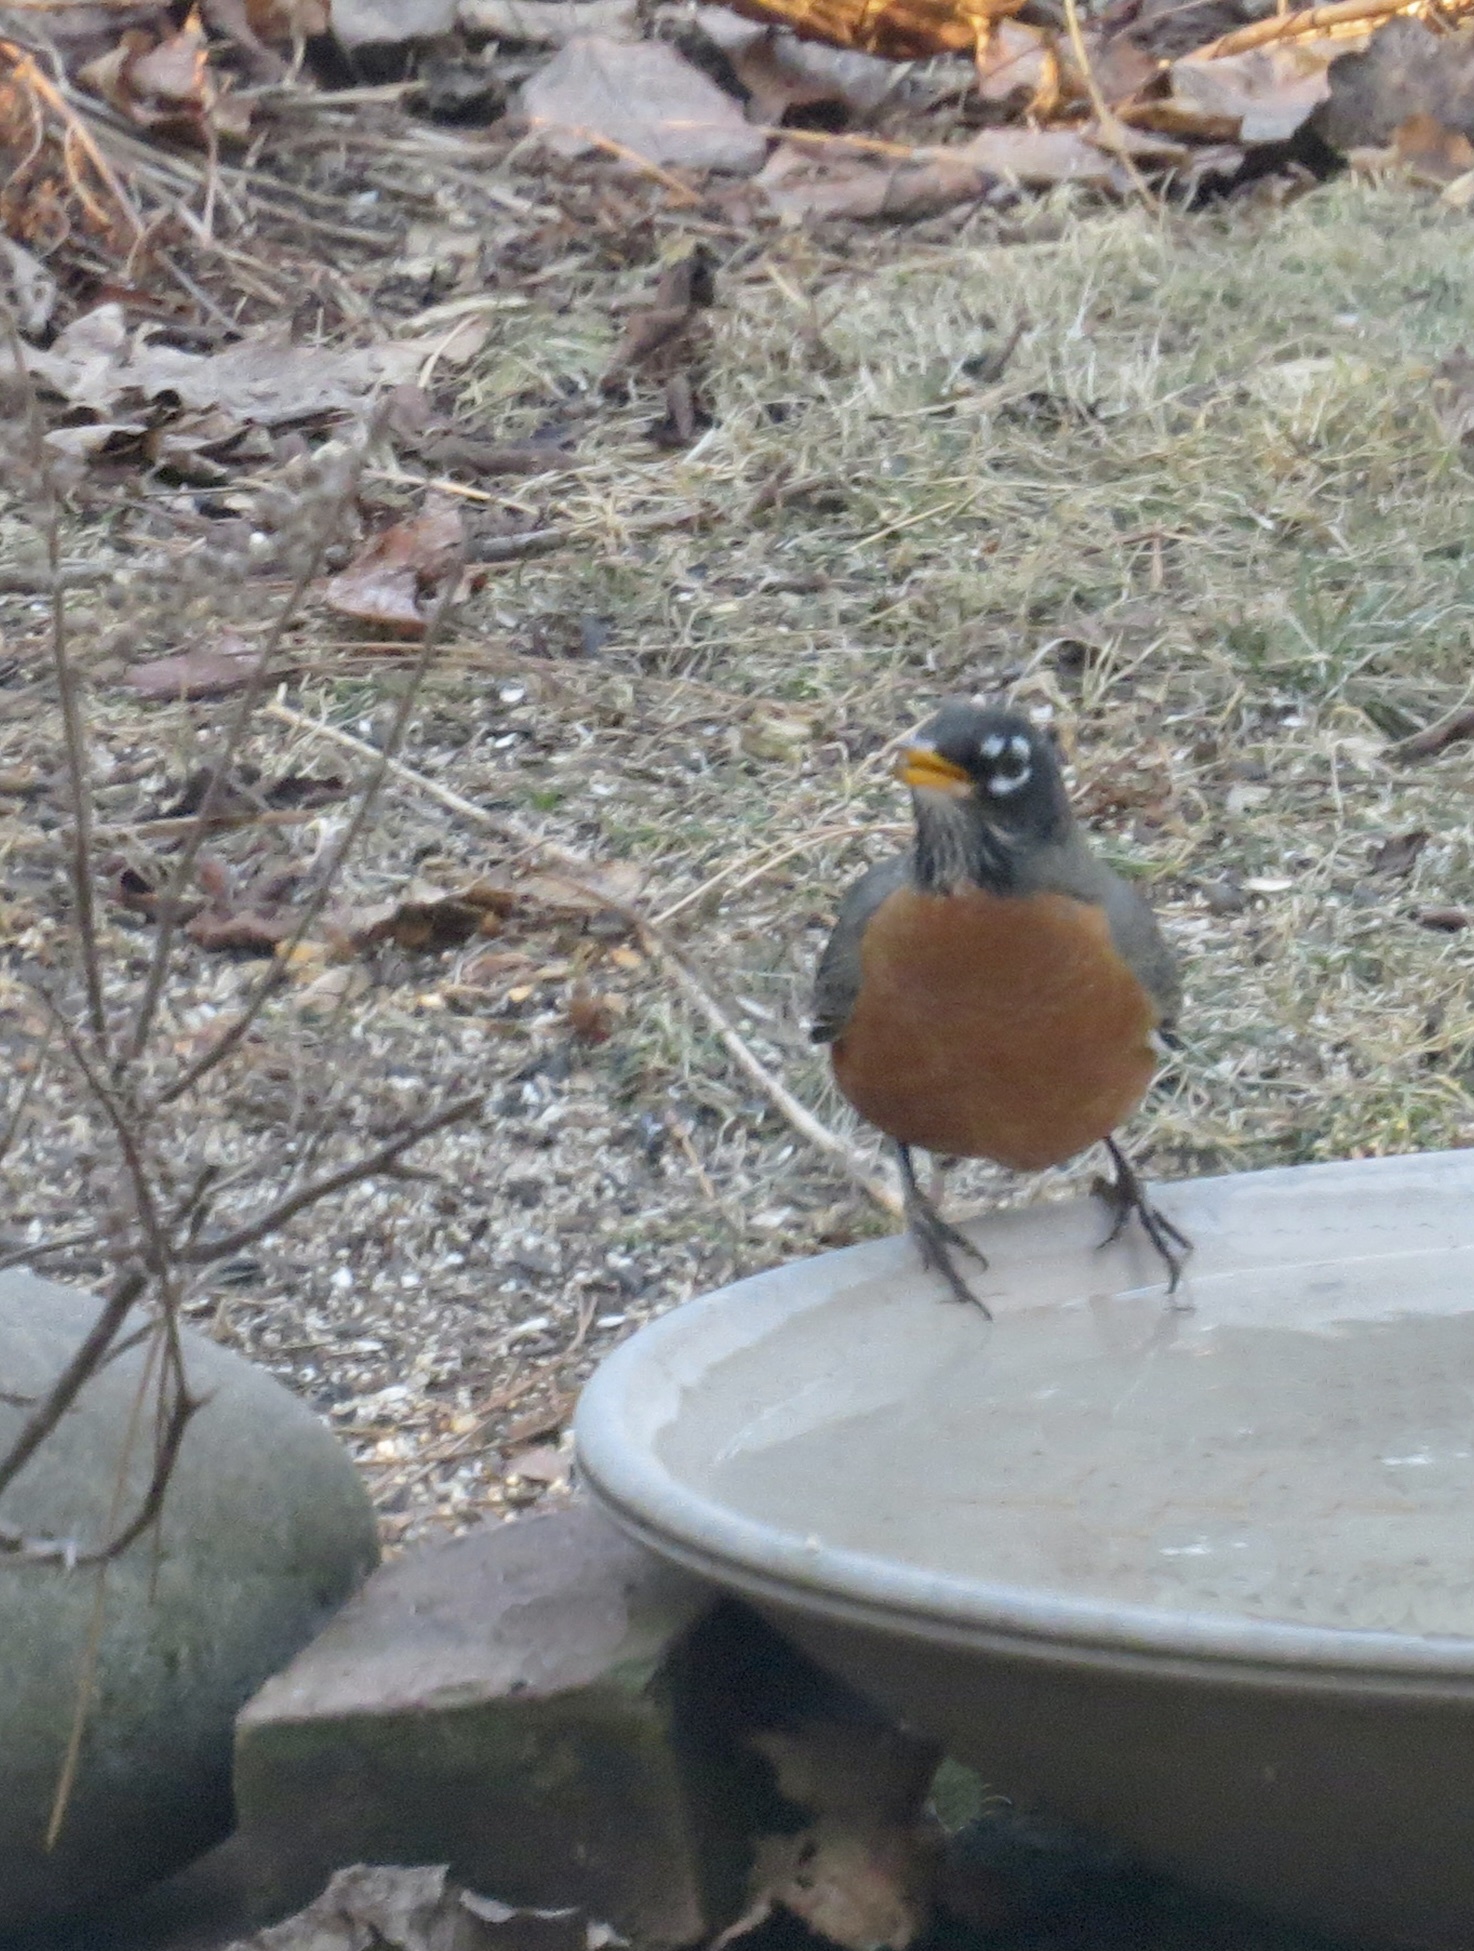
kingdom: Animalia
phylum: Chordata
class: Aves
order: Passeriformes
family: Turdidae
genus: Turdus
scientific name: Turdus migratorius
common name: American robin
